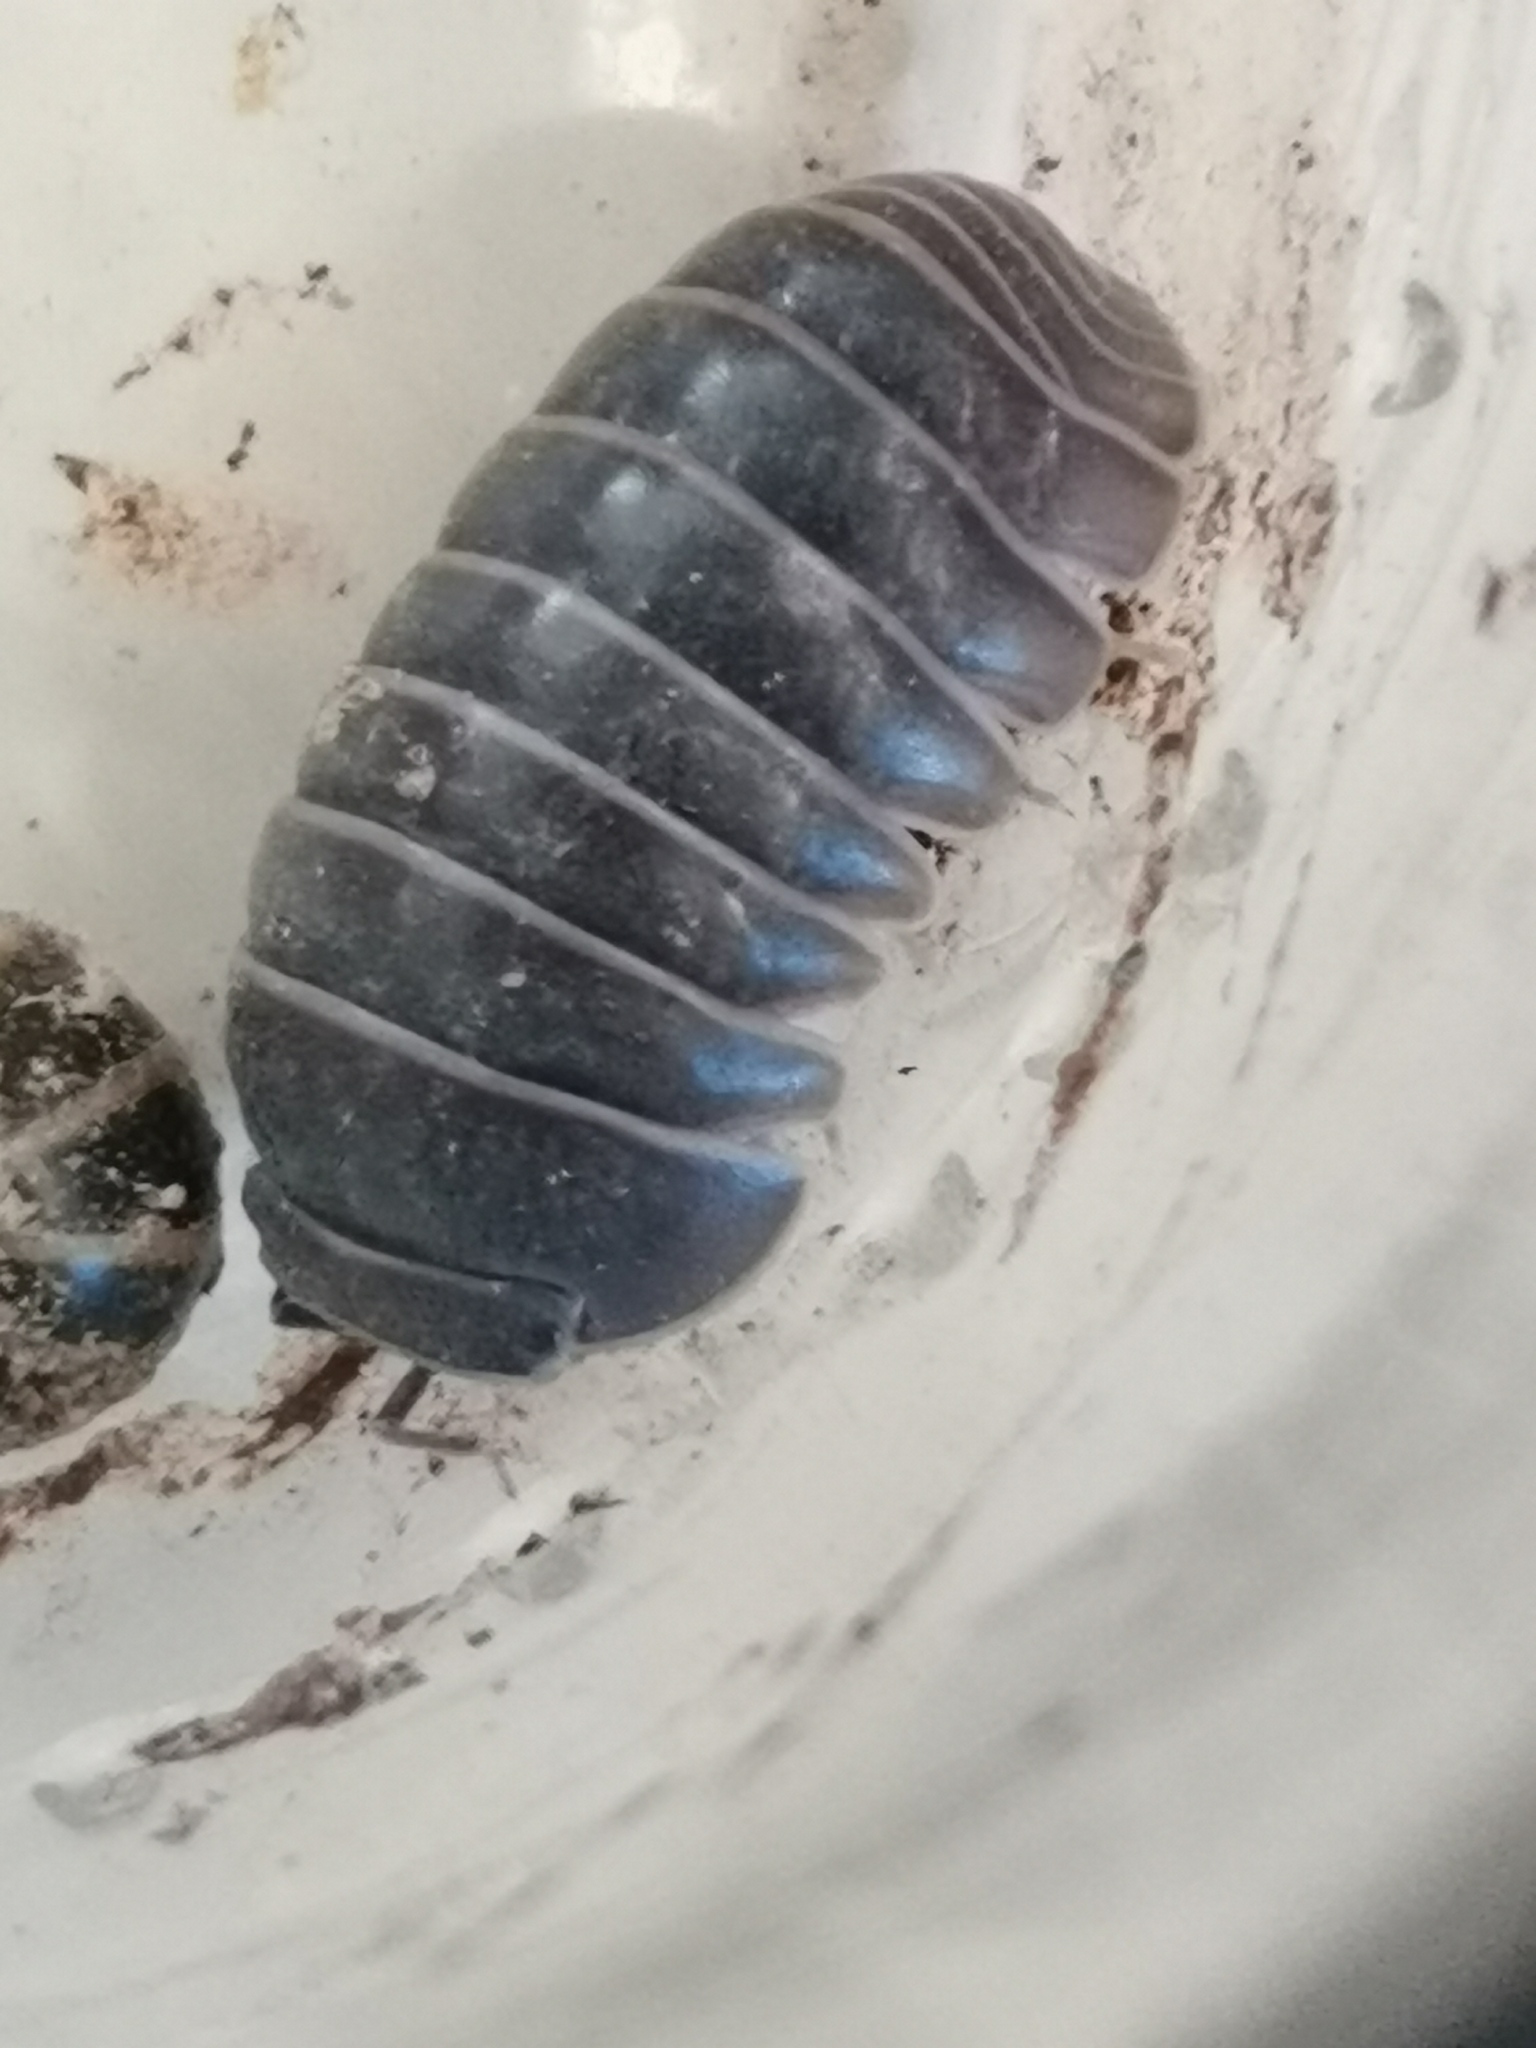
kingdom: Animalia
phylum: Arthropoda
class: Malacostraca
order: Isopoda
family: Armadillidae
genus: Armadillo
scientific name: Armadillo officinalis
